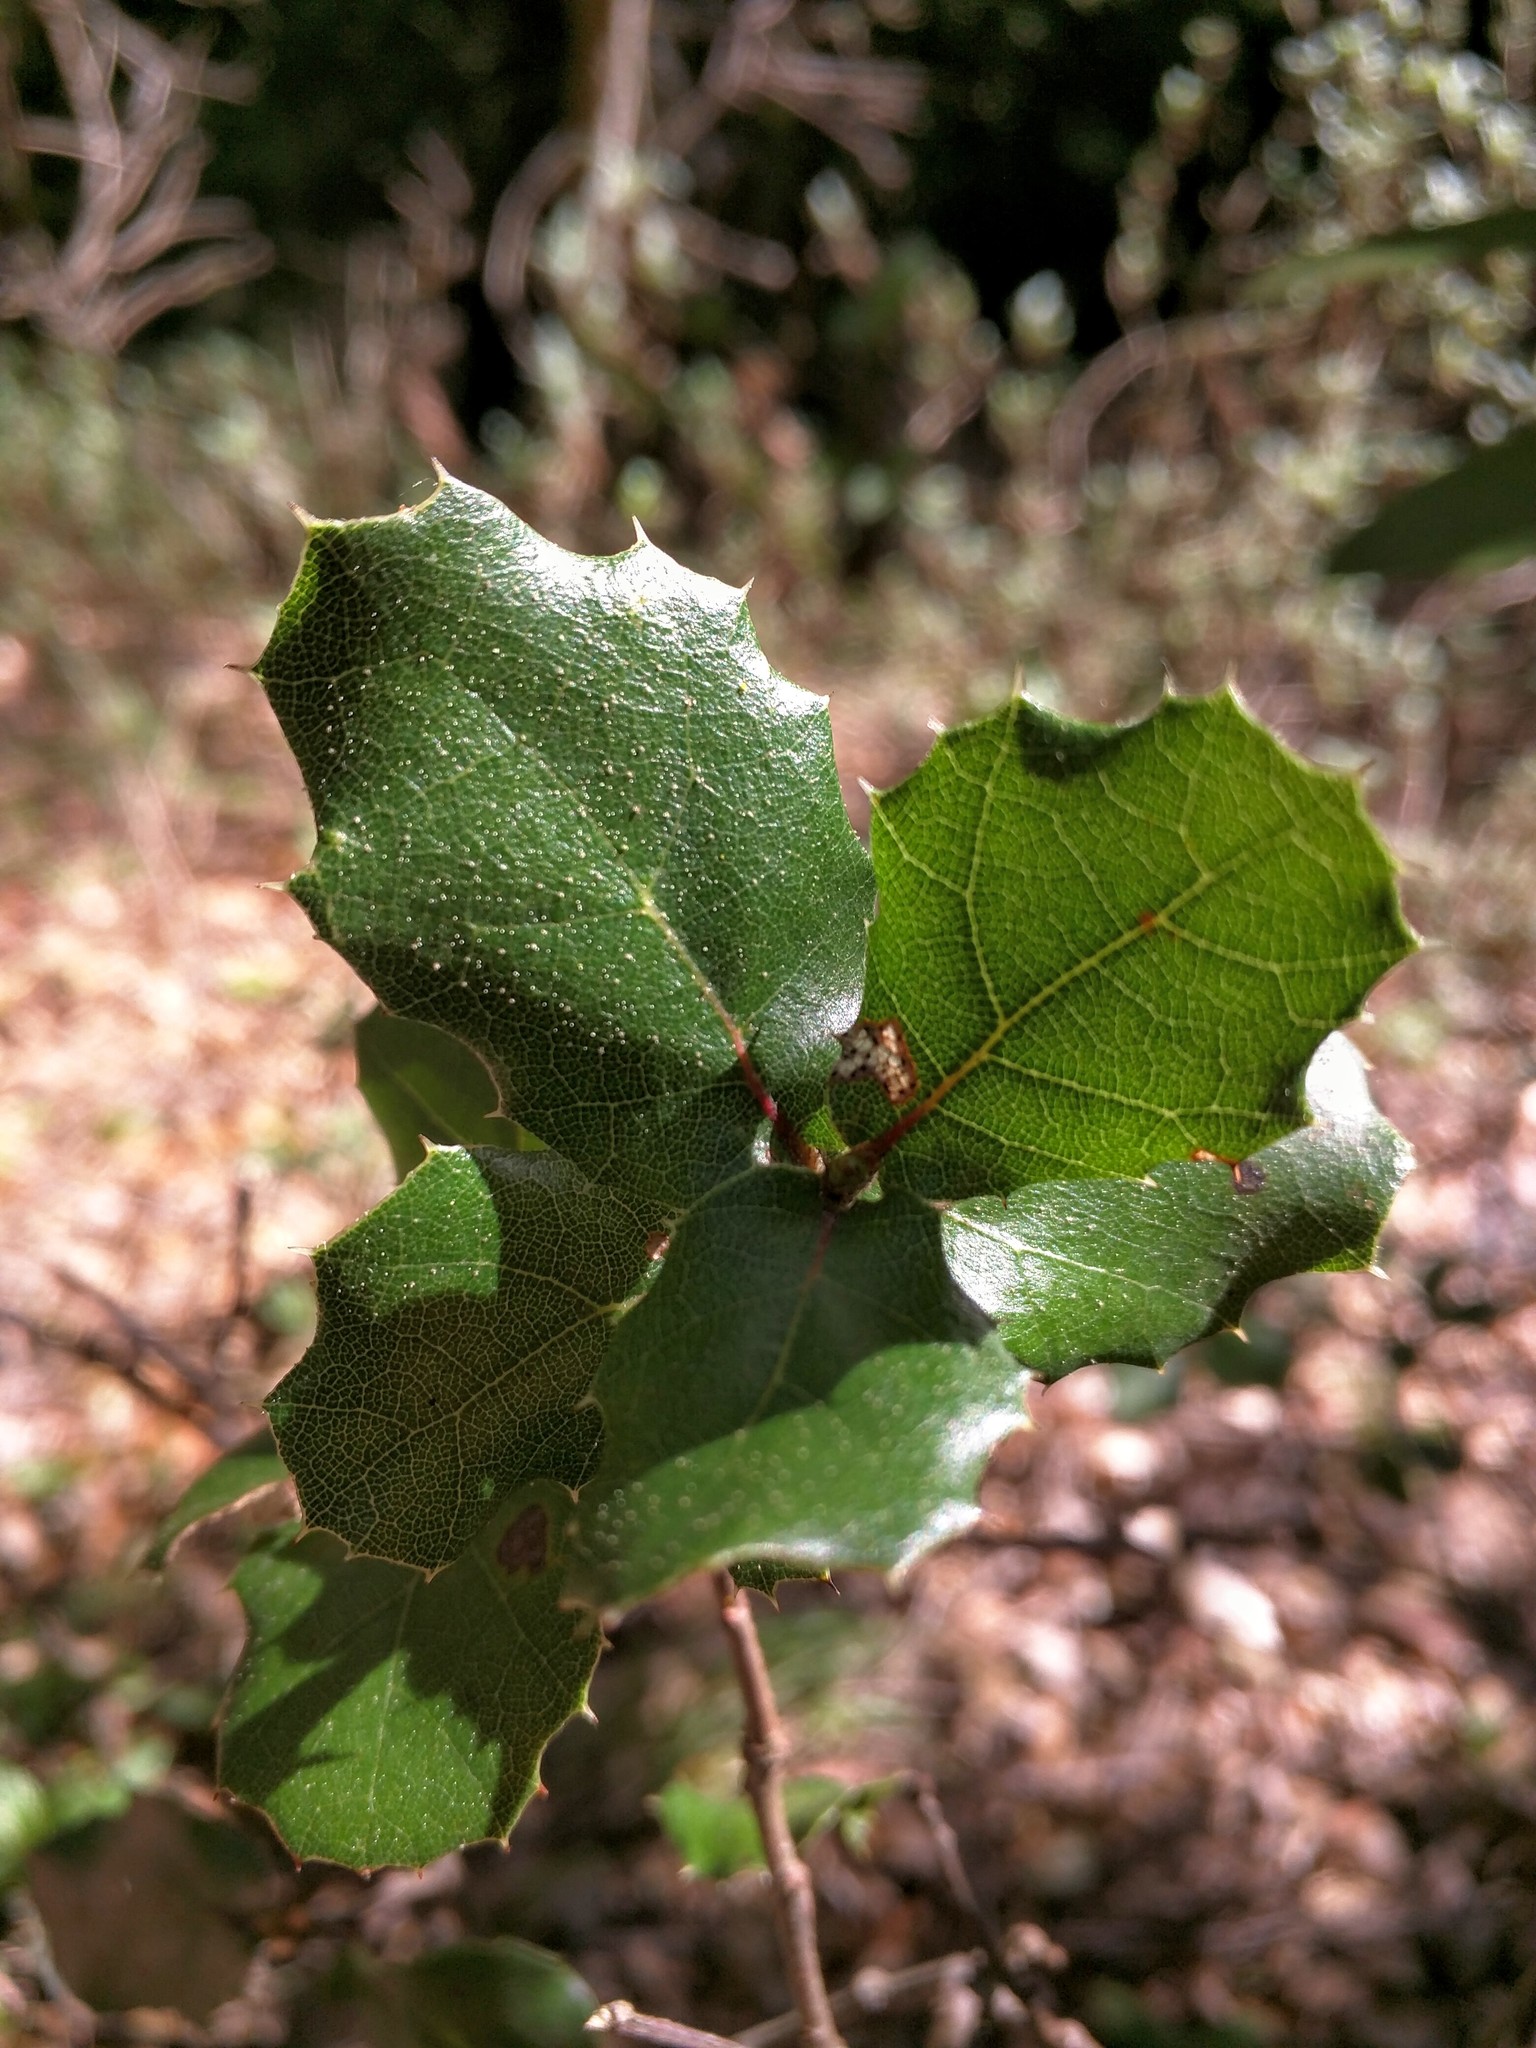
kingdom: Animalia
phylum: Arthropoda
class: Insecta
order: Hymenoptera
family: Cynipidae
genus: Callirhytis
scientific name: Callirhytis
